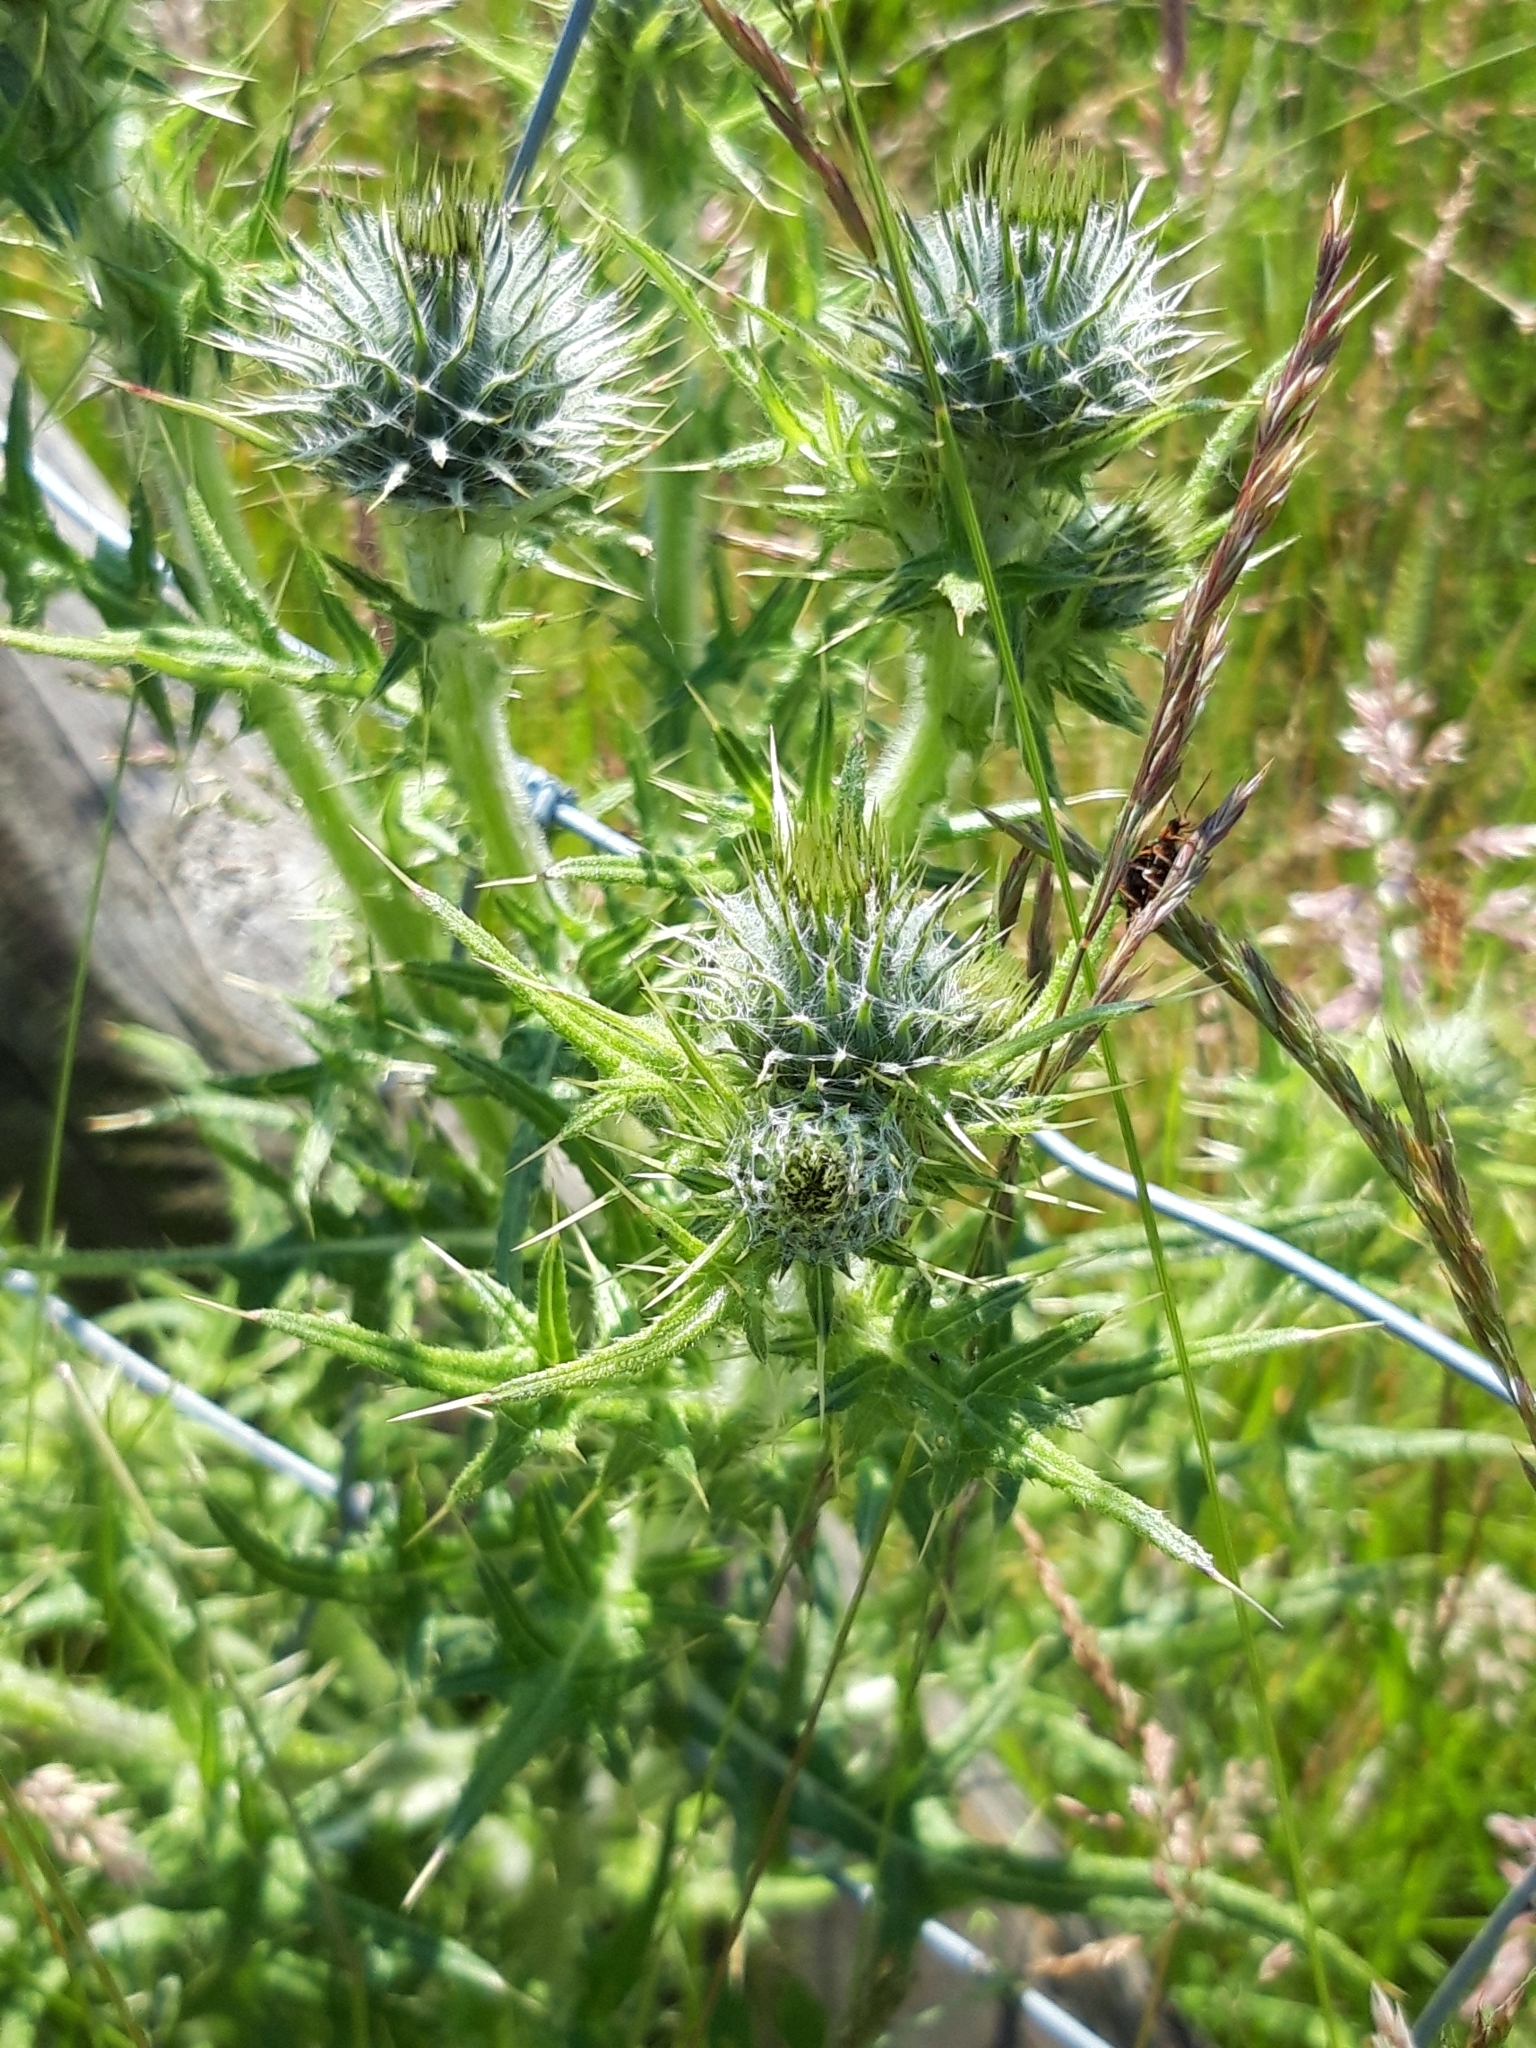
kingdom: Plantae
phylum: Tracheophyta
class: Magnoliopsida
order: Asterales
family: Asteraceae
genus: Cirsium
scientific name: Cirsium vulgare
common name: Bull thistle
